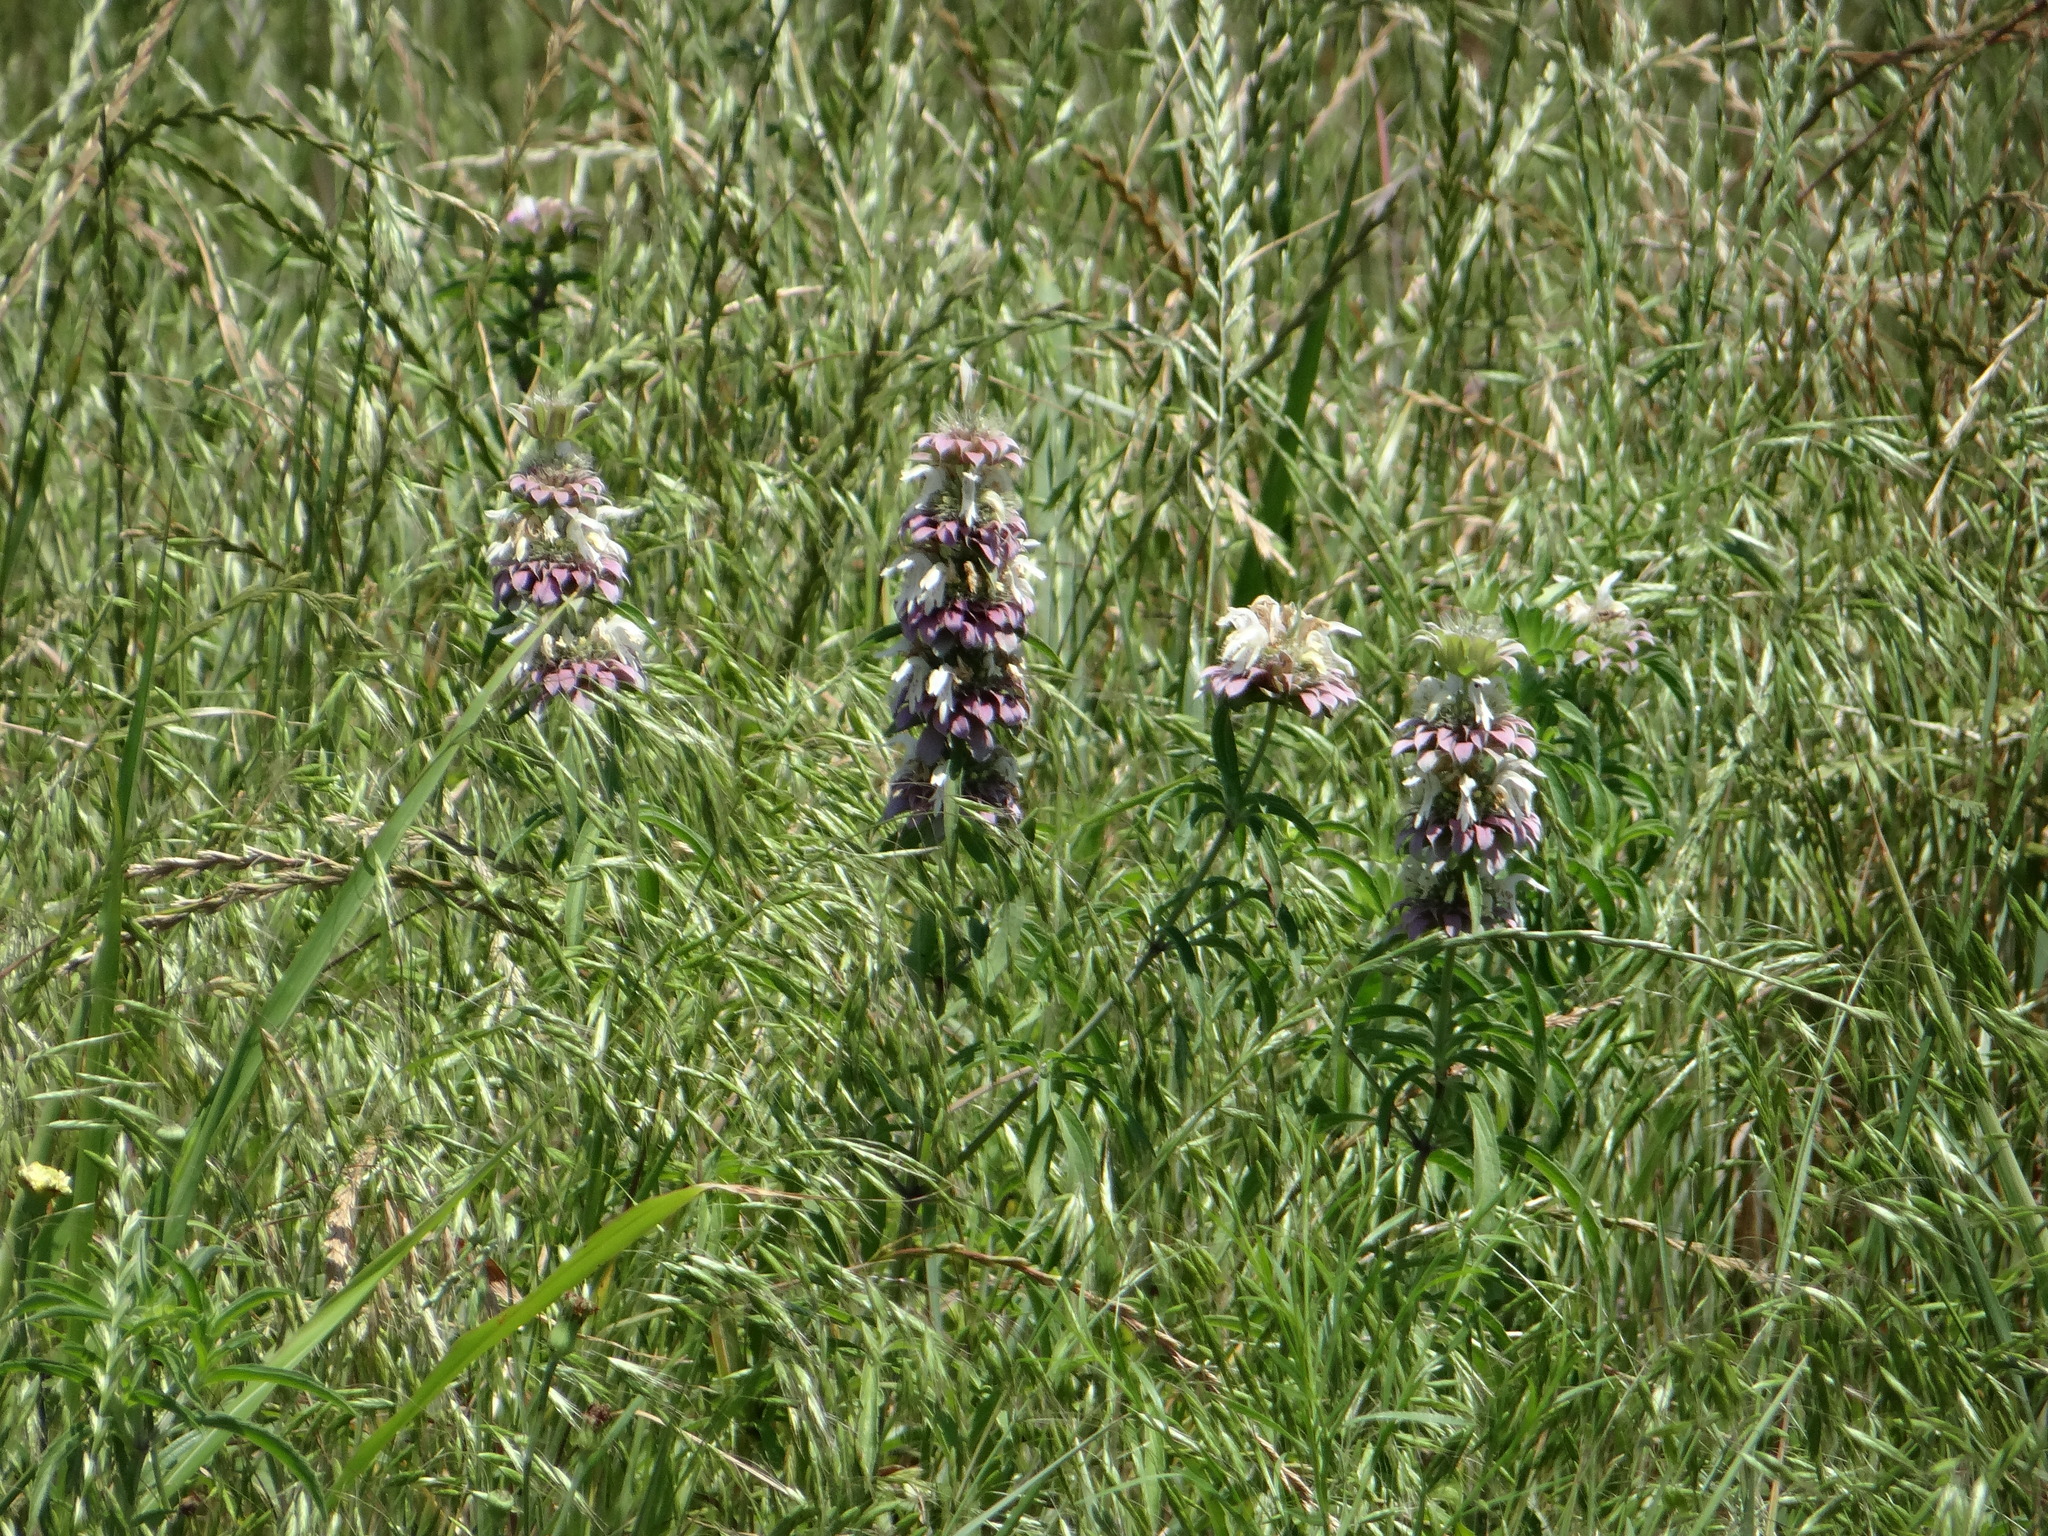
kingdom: Plantae
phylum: Tracheophyta
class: Magnoliopsida
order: Lamiales
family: Lamiaceae
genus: Monarda
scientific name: Monarda citriodora
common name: Lemon beebalm
